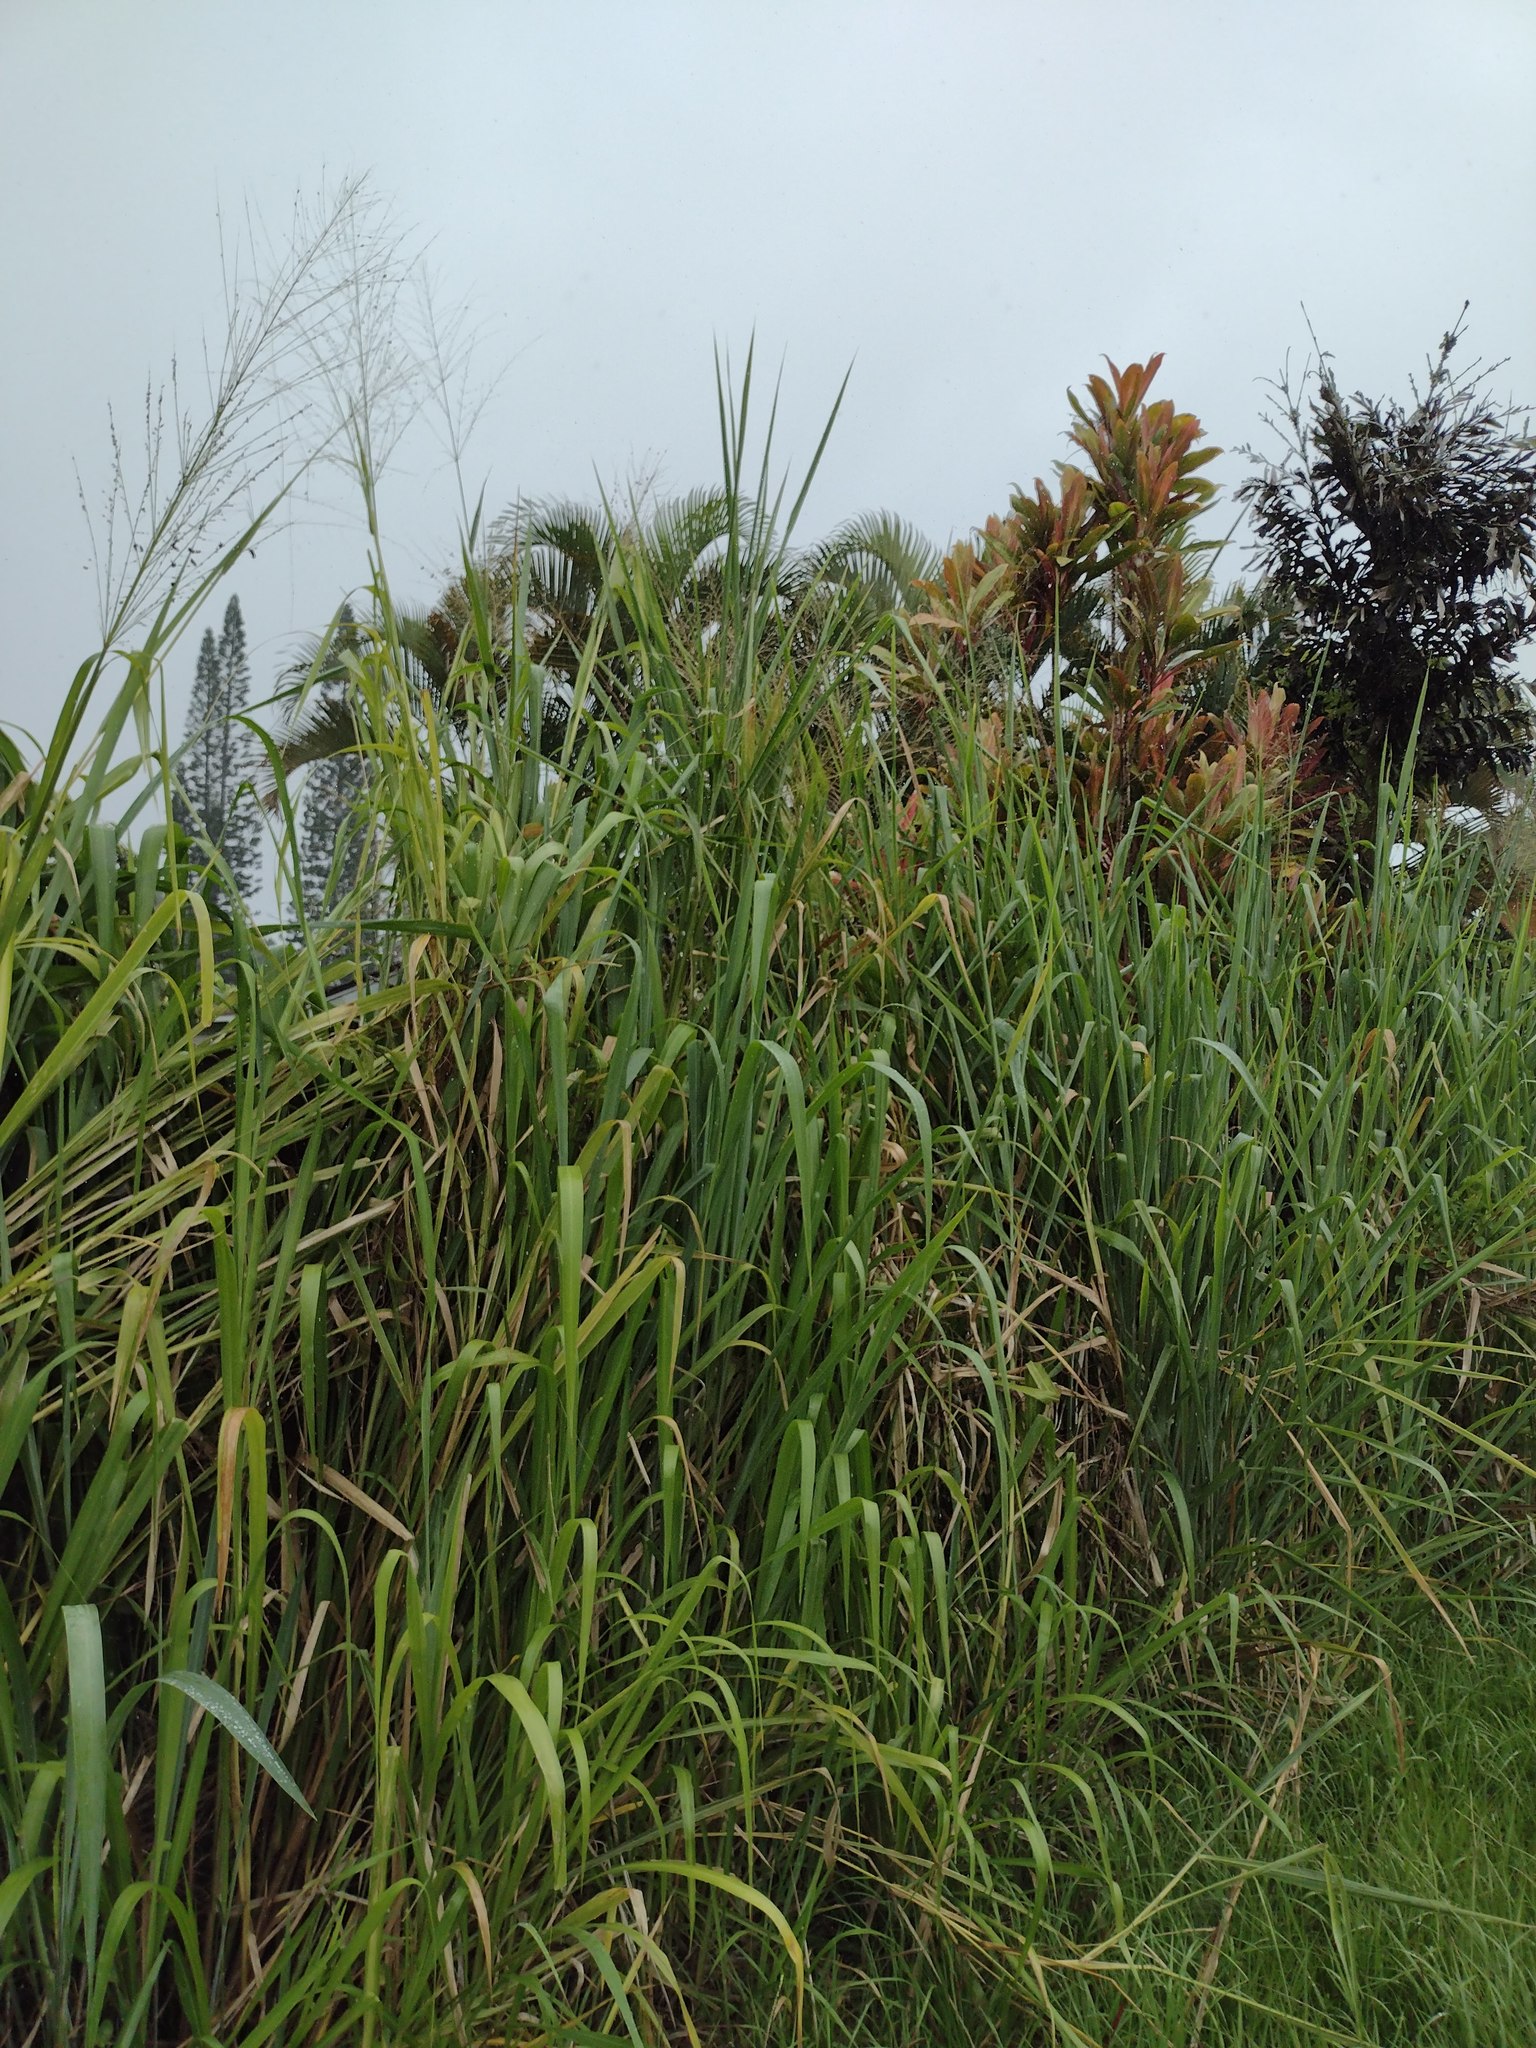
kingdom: Plantae
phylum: Tracheophyta
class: Liliopsida
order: Poales
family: Poaceae
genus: Megathyrsus
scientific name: Megathyrsus maximus
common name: Guineagrass
